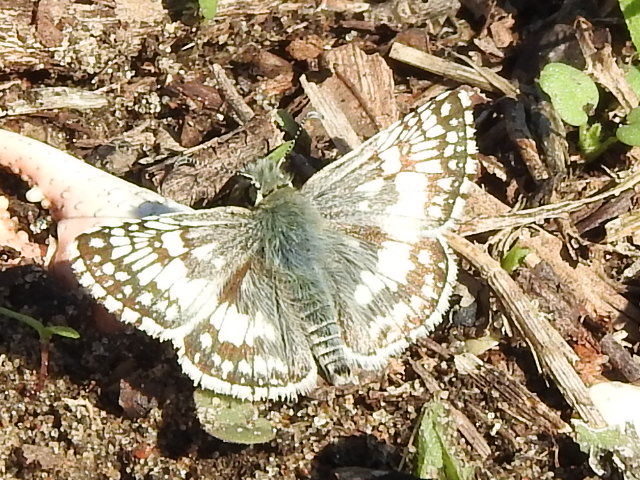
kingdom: Animalia
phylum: Arthropoda
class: Insecta
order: Lepidoptera
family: Hesperiidae
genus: Burnsius
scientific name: Burnsius
